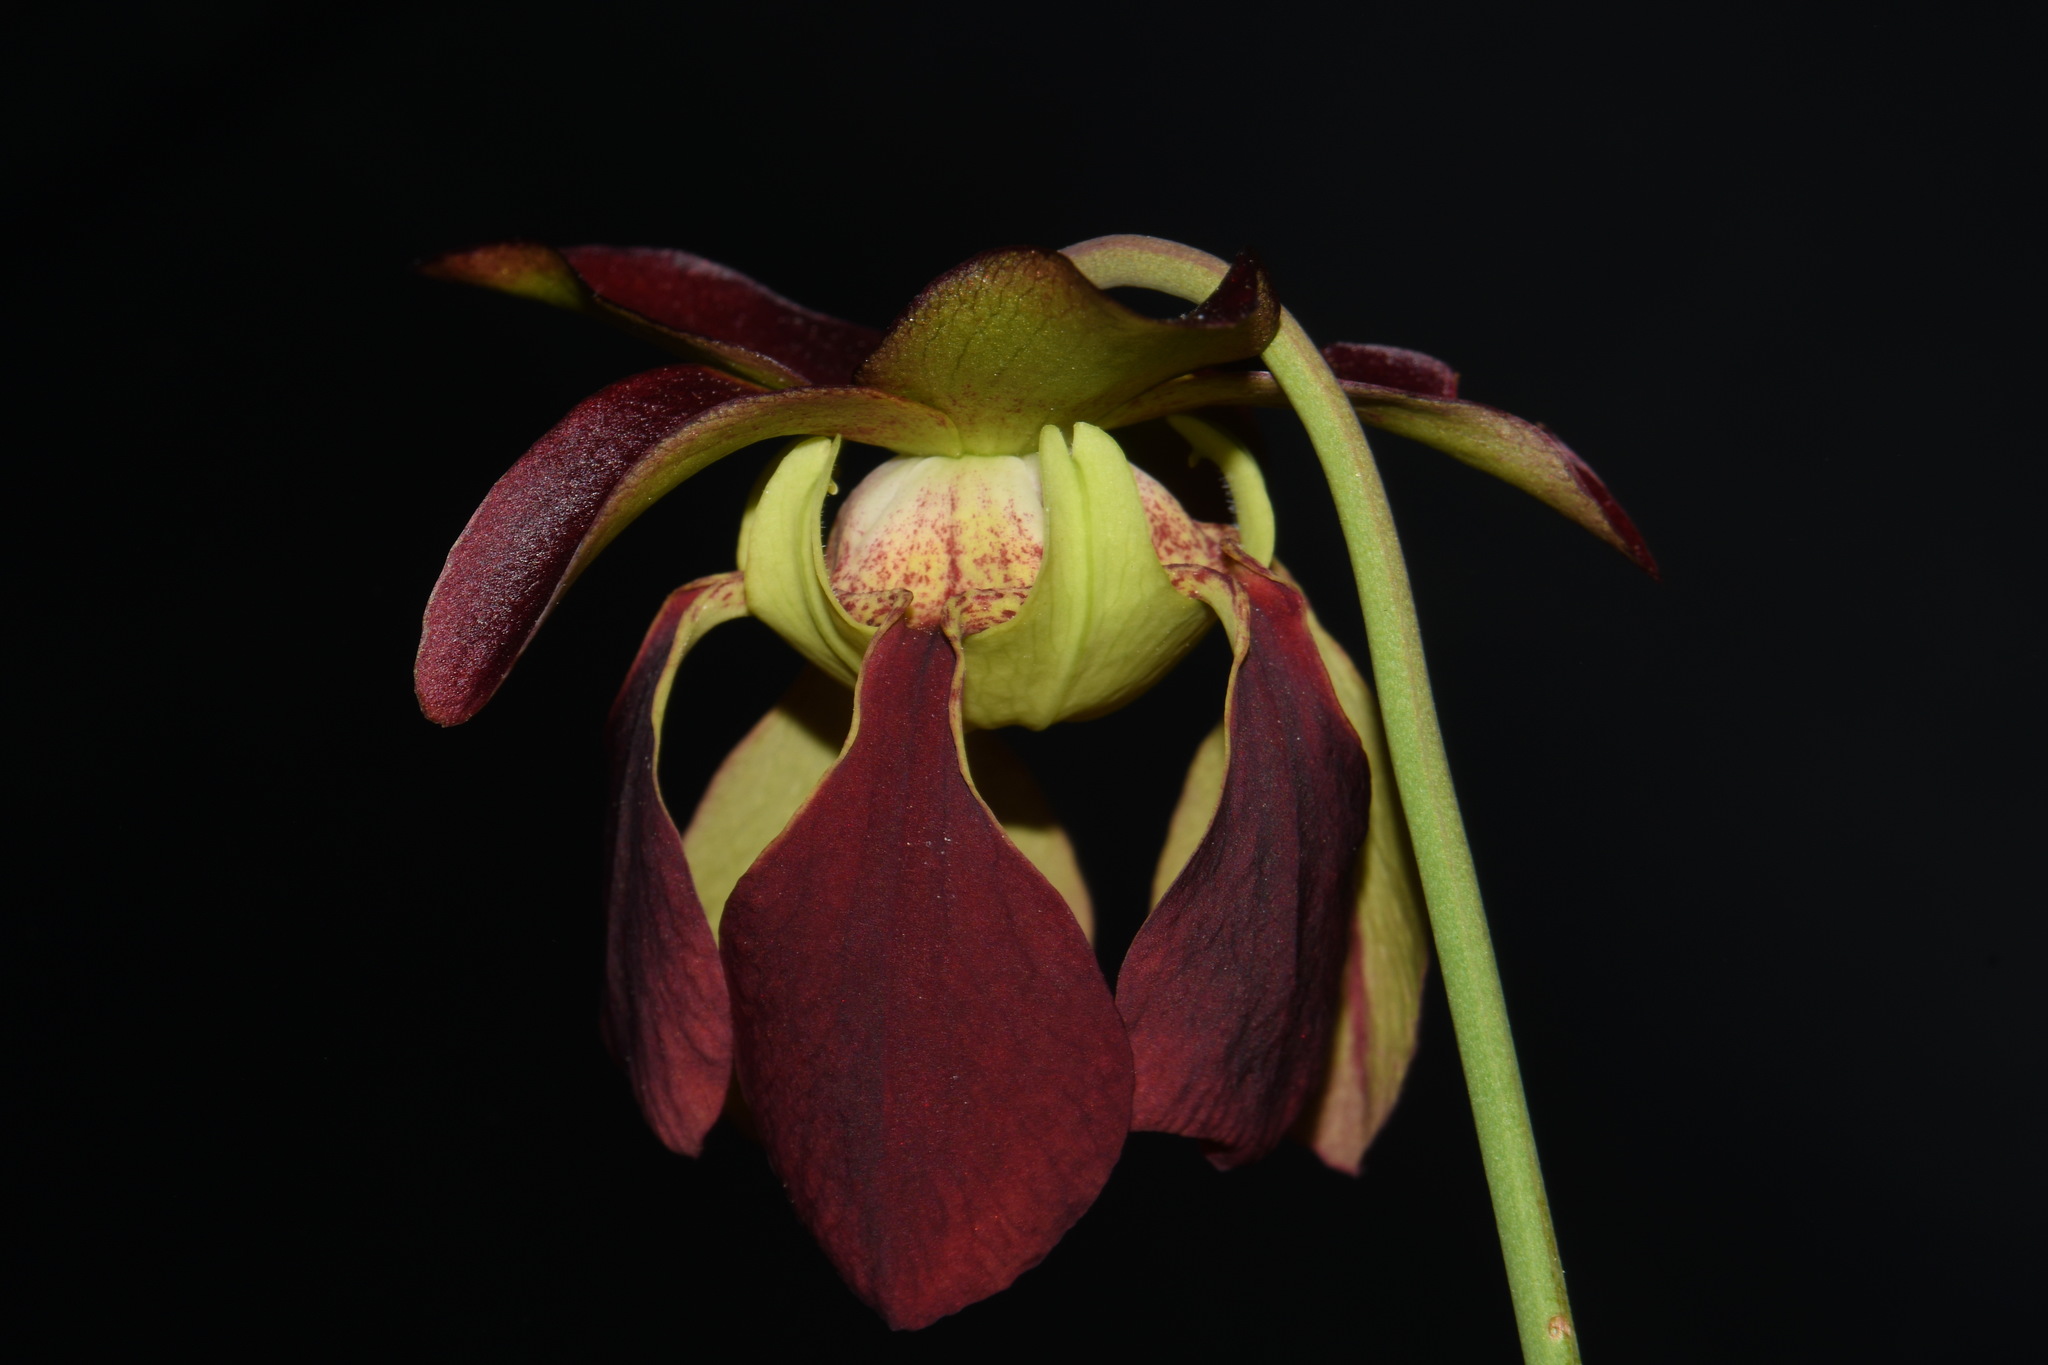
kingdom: Plantae
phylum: Tracheophyta
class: Magnoliopsida
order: Ericales
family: Sarraceniaceae
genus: Sarracenia
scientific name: Sarracenia rubra
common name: Sweet pitcherplant
